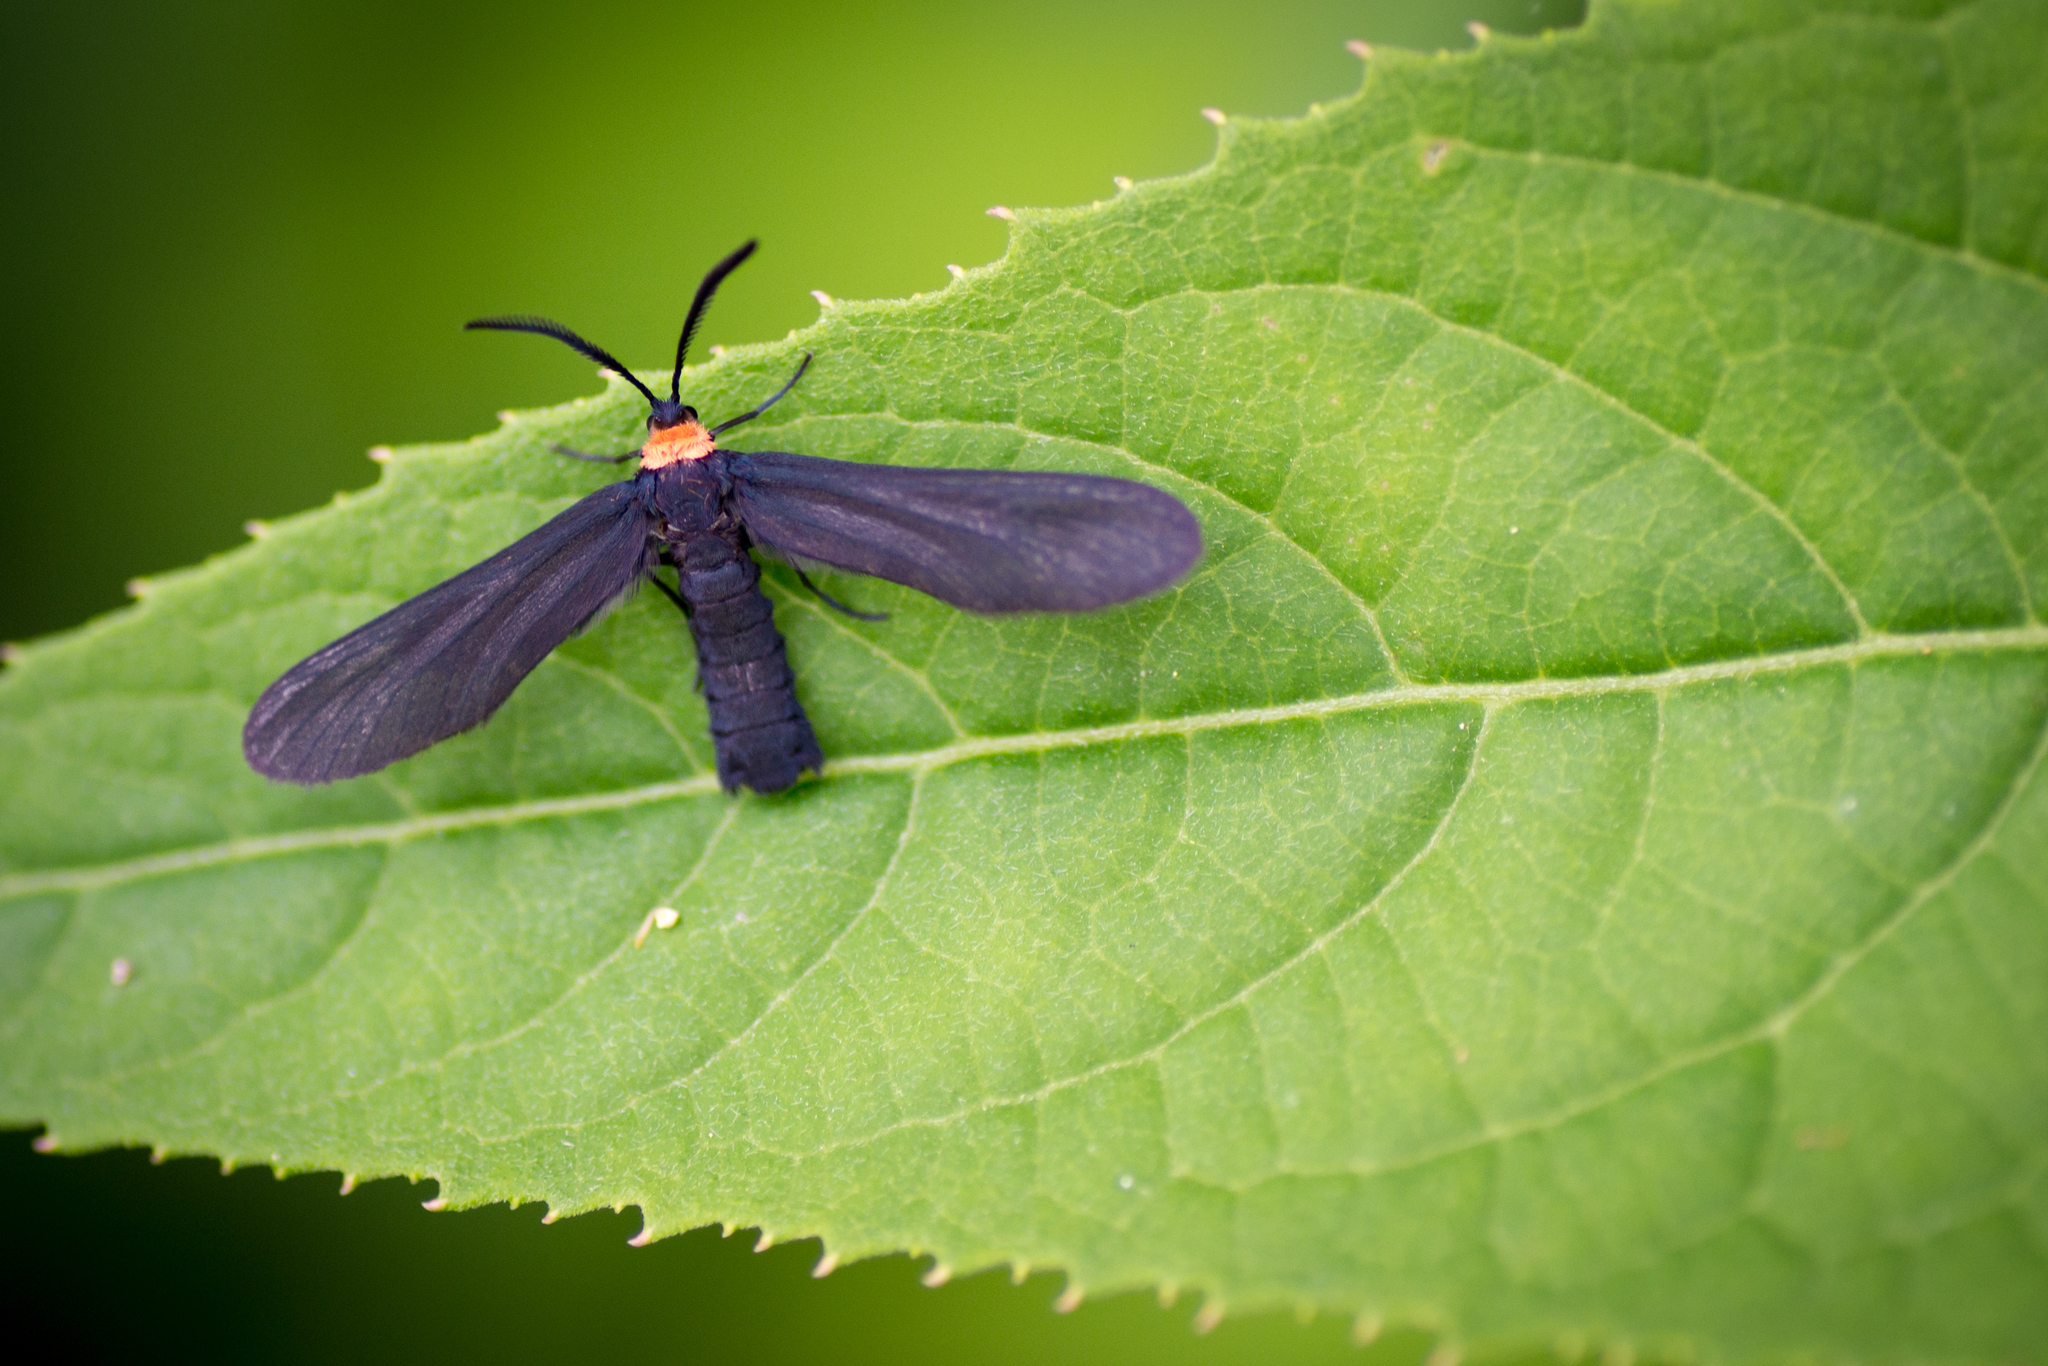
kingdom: Animalia
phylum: Arthropoda
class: Insecta
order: Lepidoptera
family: Zygaenidae
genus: Harrisina
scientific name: Harrisina americana
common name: Grapeleaf skeletonizer moth
